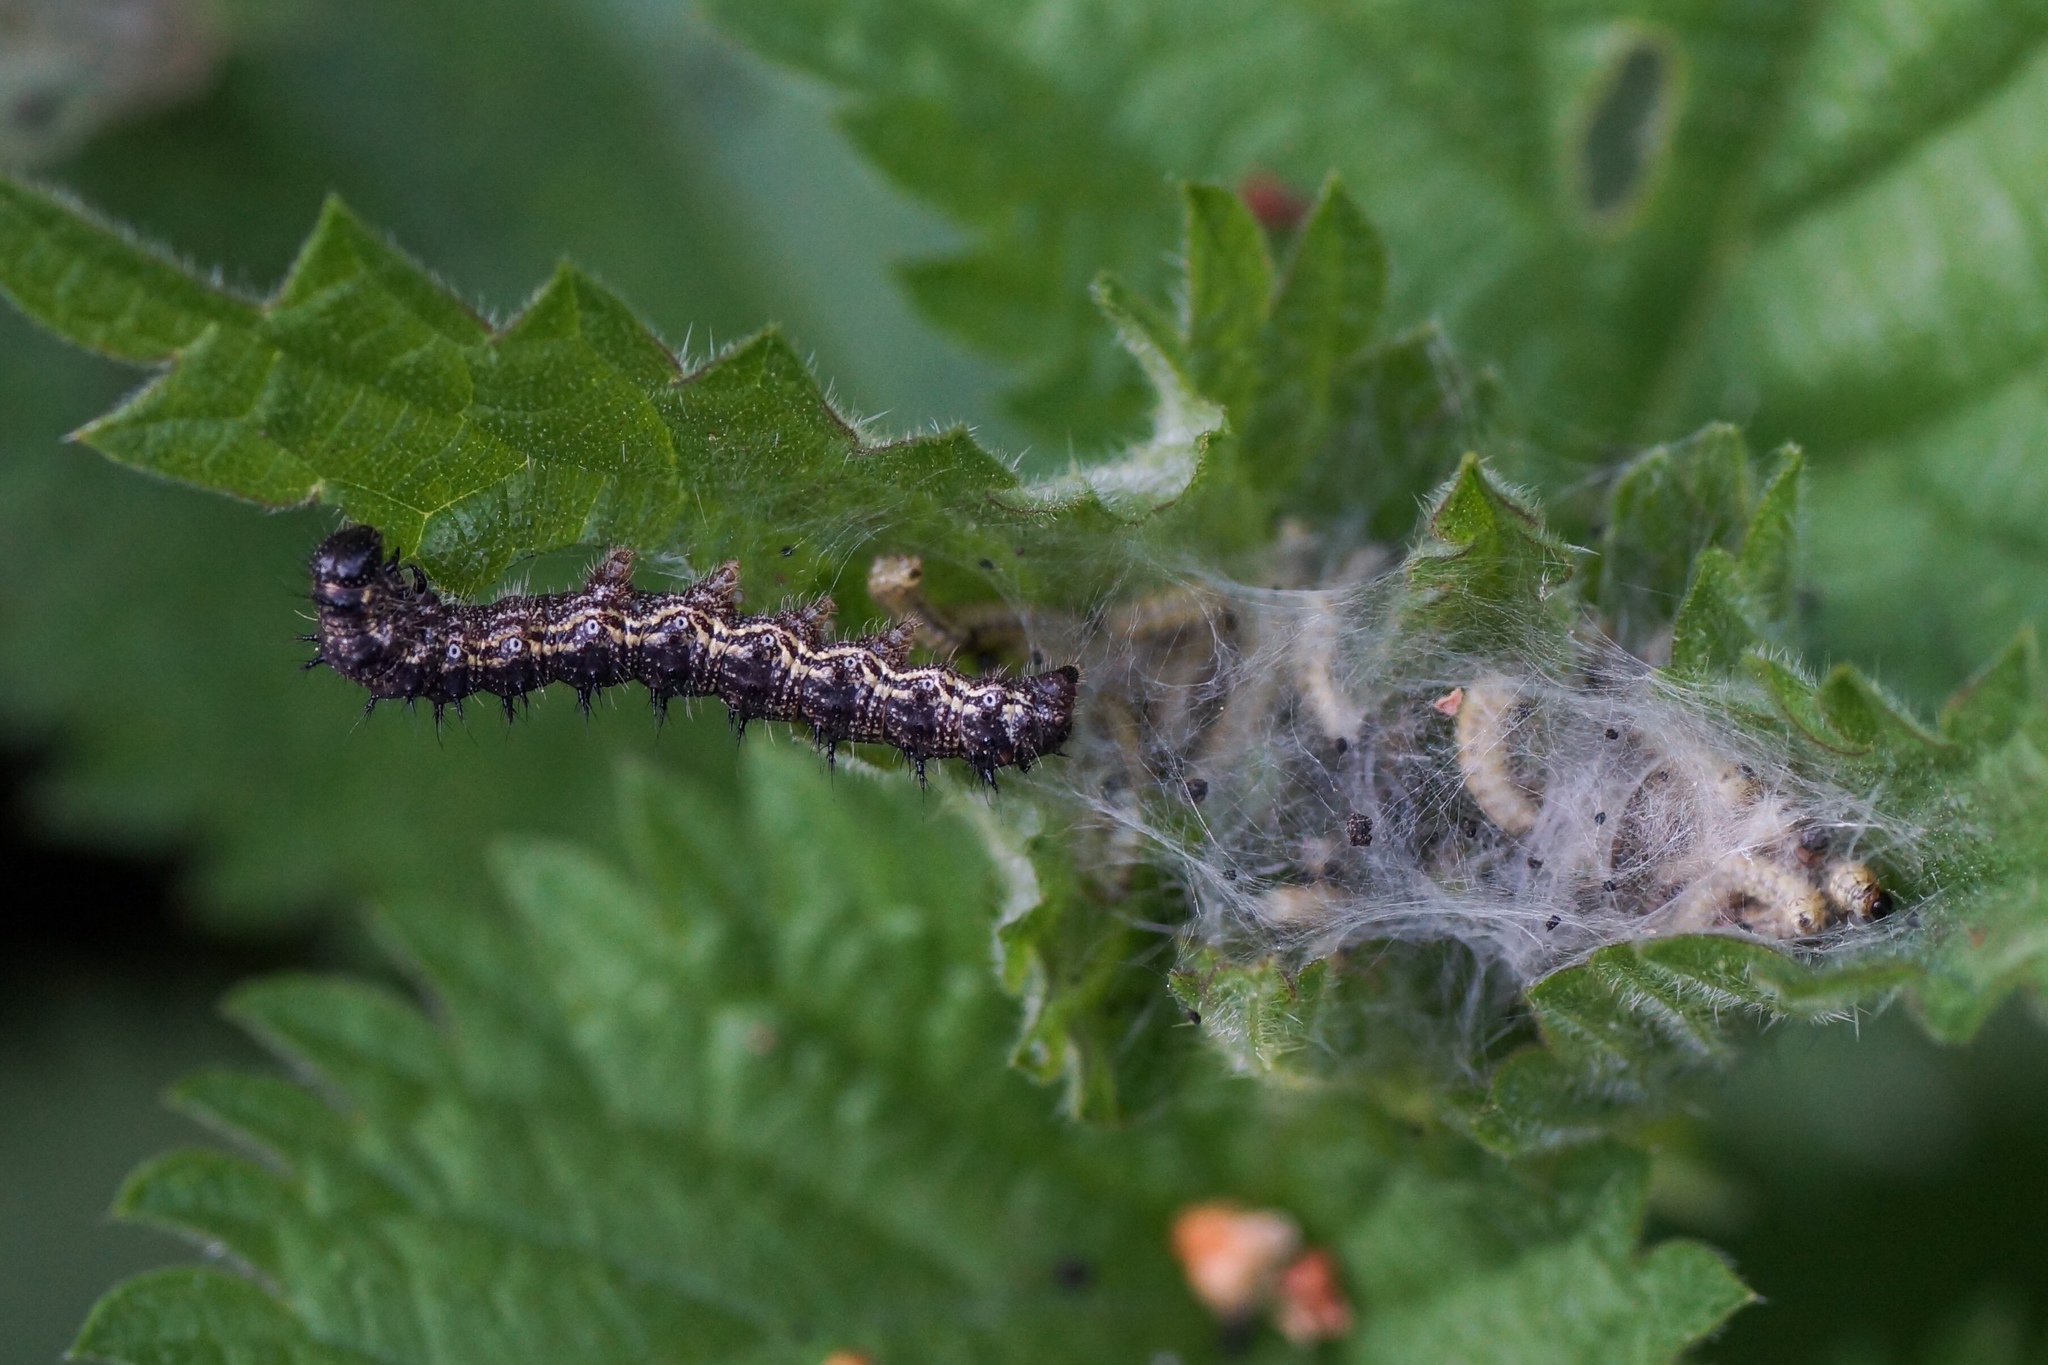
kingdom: Animalia
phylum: Arthropoda
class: Insecta
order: Lepidoptera
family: Nymphalidae
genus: Aglais
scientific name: Aglais urticae
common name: Small tortoiseshell
